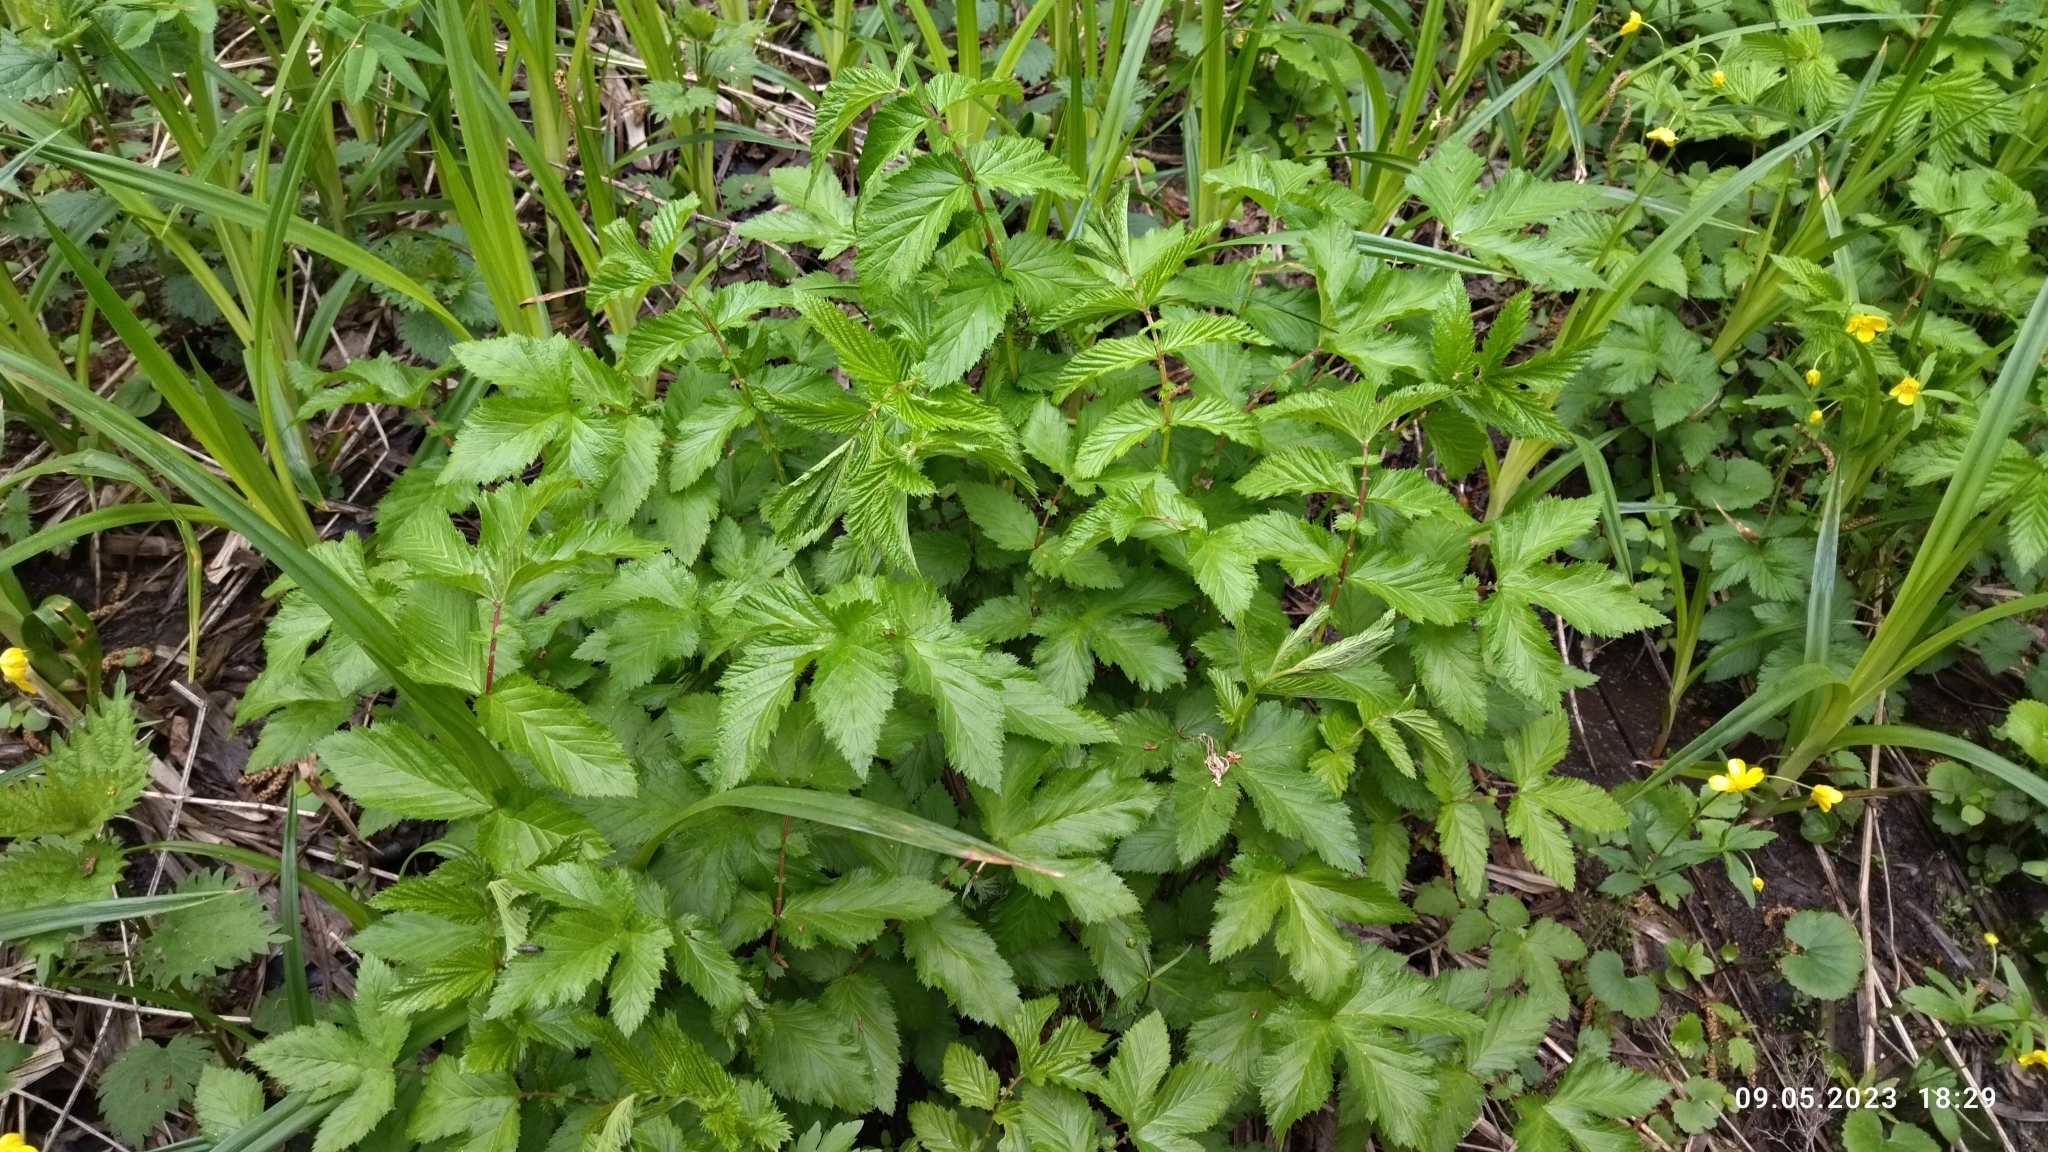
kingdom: Plantae
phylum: Tracheophyta
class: Magnoliopsida
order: Rosales
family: Rosaceae
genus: Filipendula
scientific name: Filipendula ulmaria
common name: Meadowsweet
